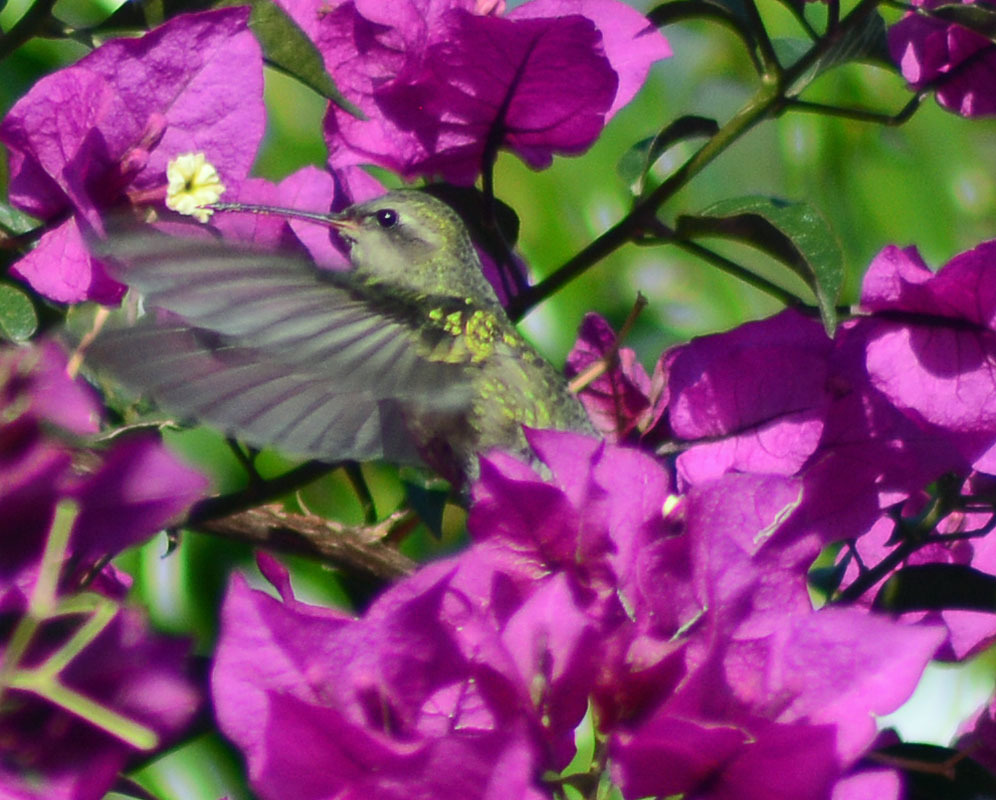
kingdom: Animalia
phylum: Chordata
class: Aves
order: Apodiformes
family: Trochilidae
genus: Cynanthus
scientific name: Cynanthus latirostris
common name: Broad-billed hummingbird
